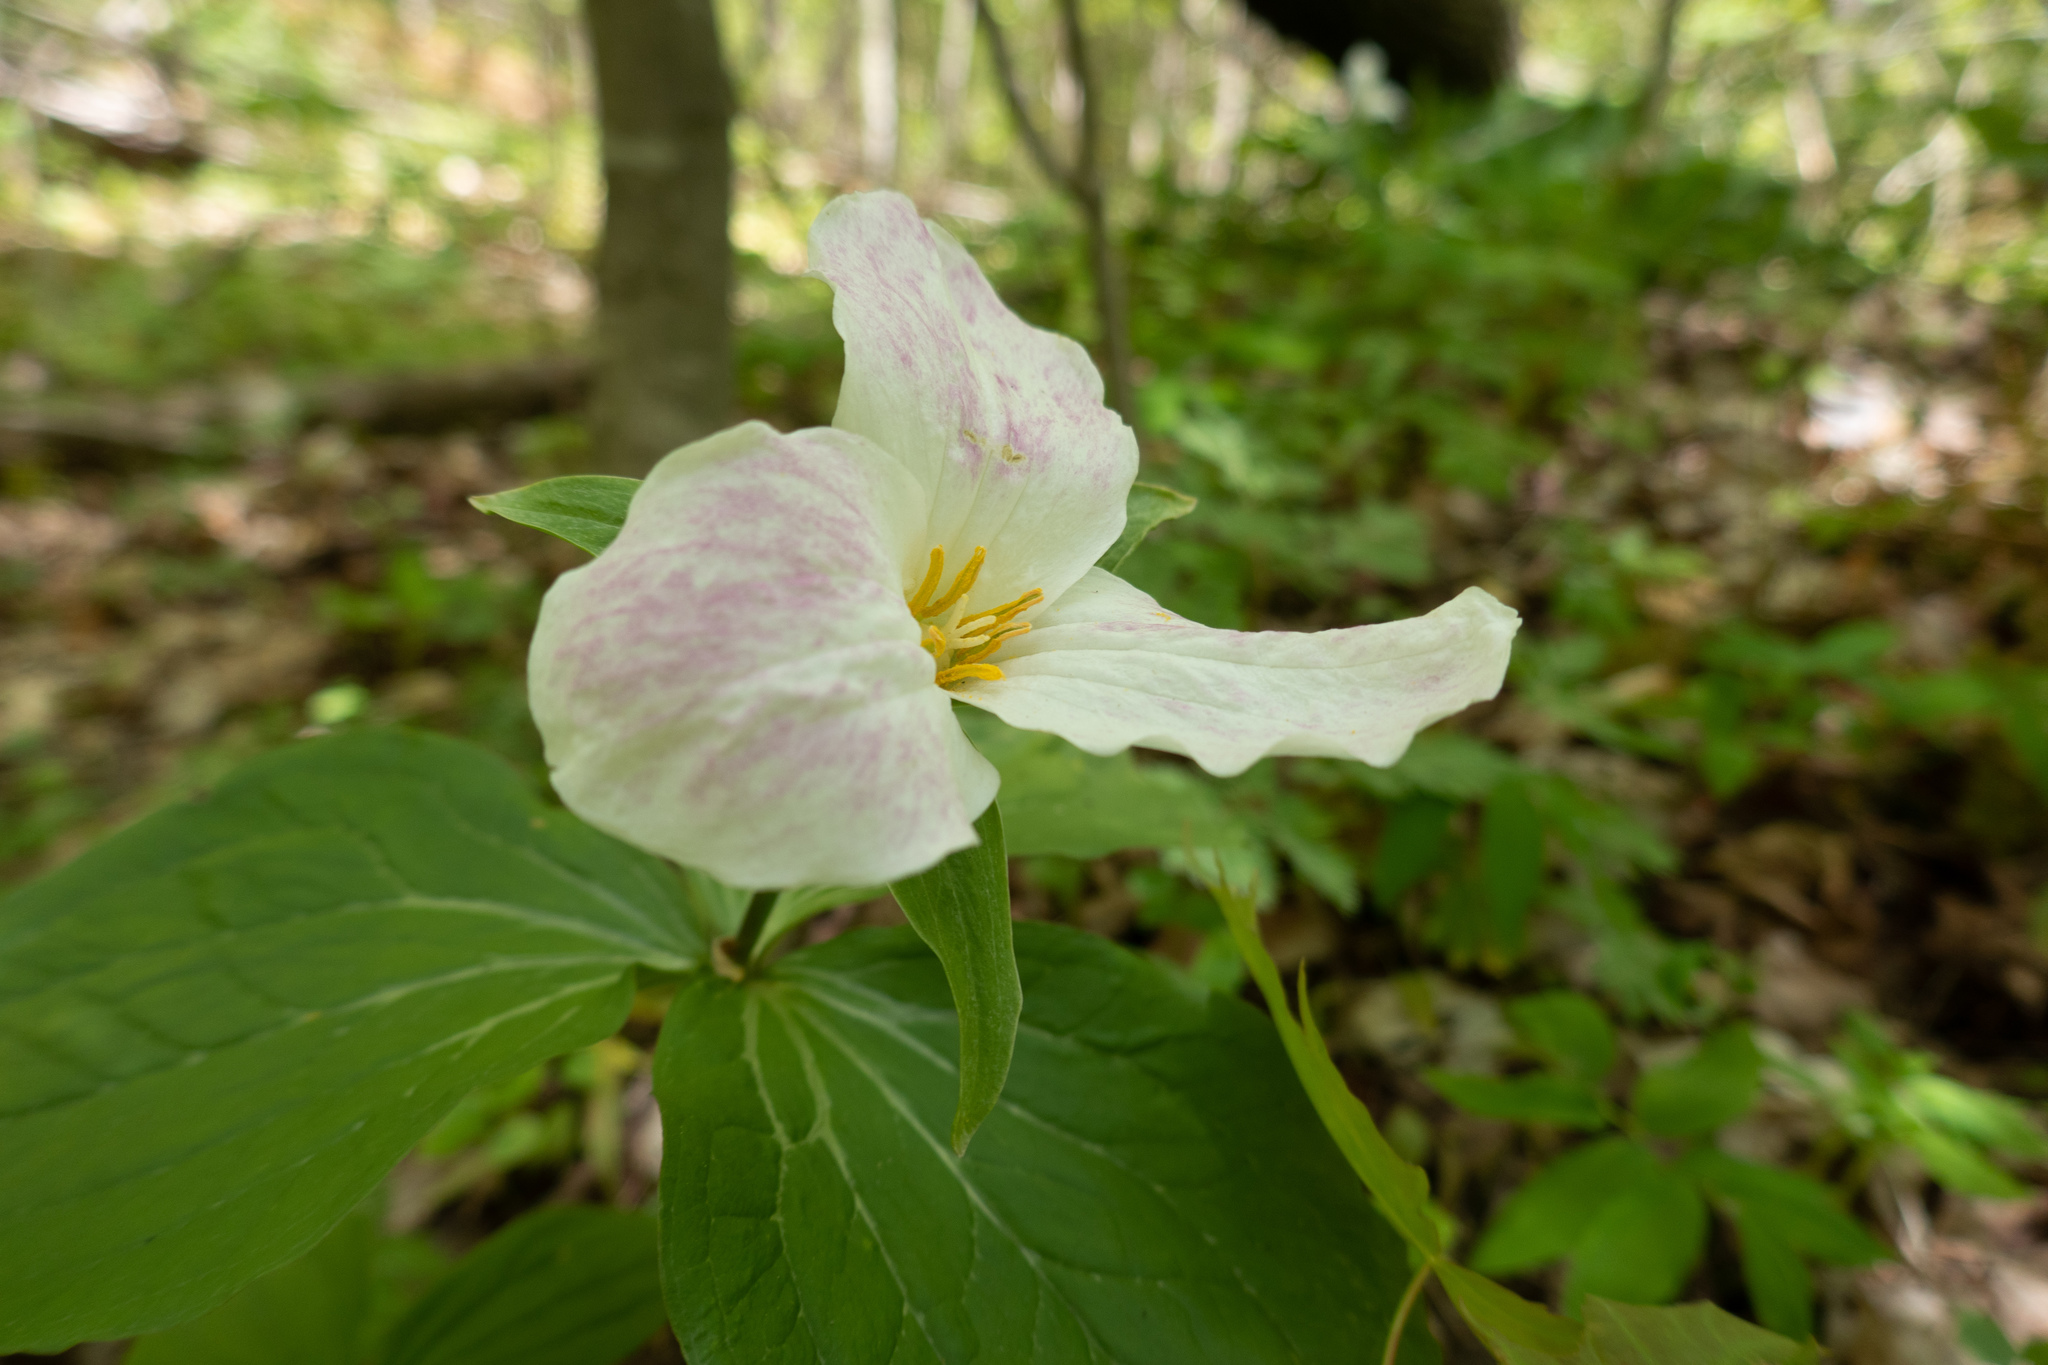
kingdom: Plantae
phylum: Tracheophyta
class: Liliopsida
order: Liliales
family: Melanthiaceae
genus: Trillium
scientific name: Trillium grandiflorum
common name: Great white trillium
